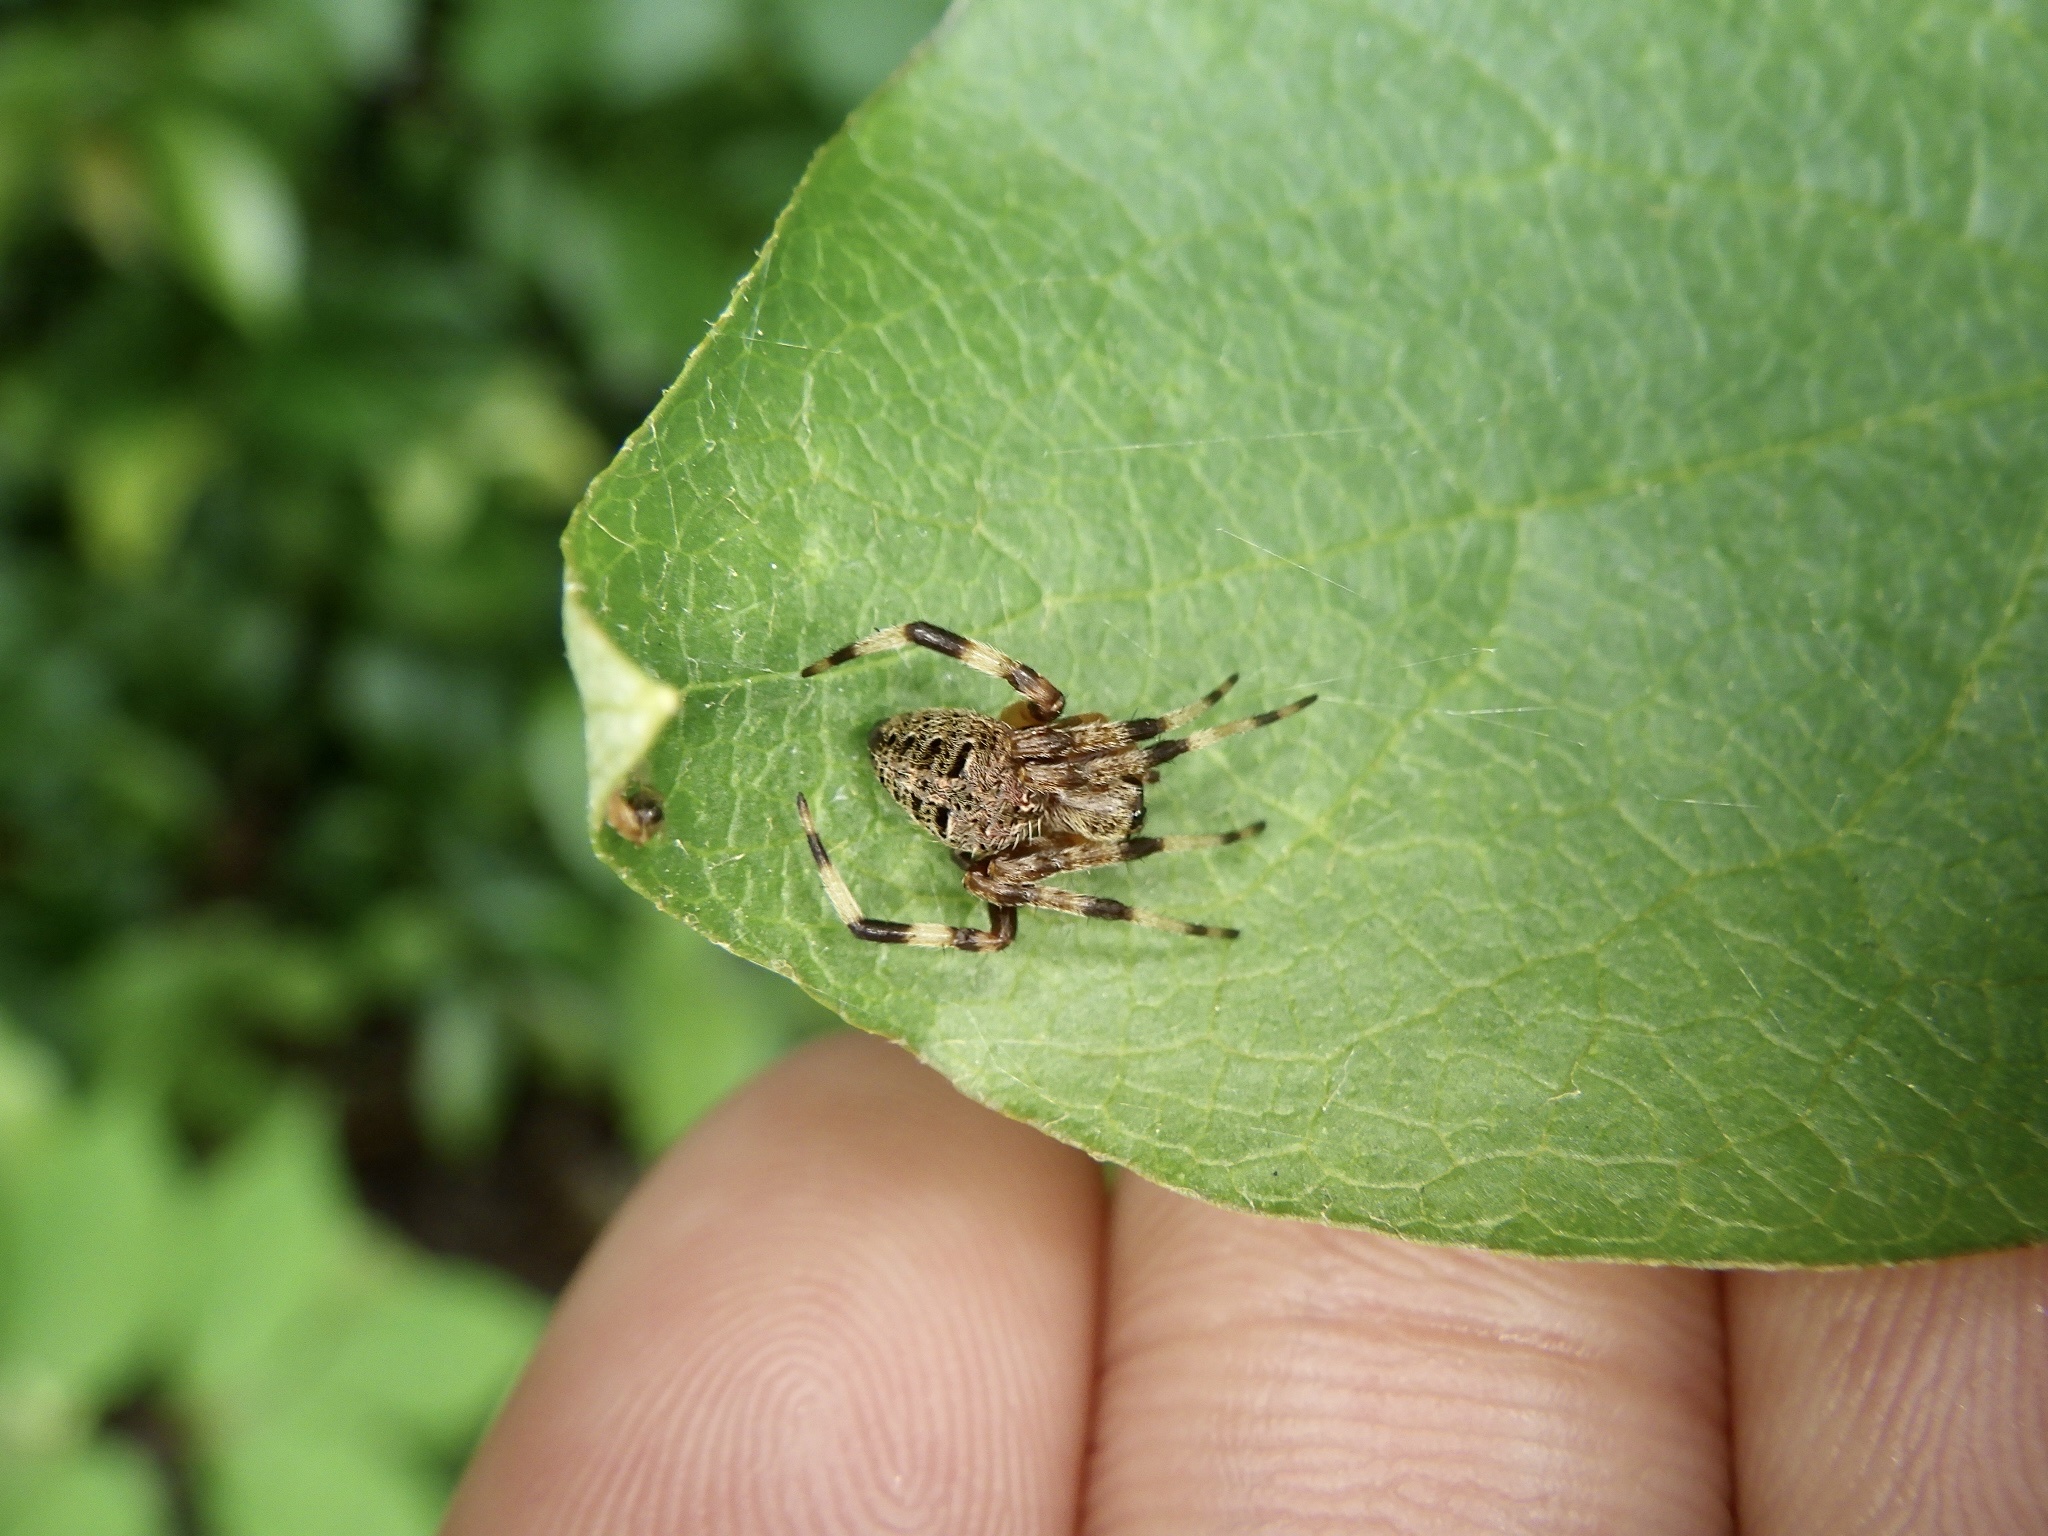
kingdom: Animalia
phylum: Arthropoda
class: Arachnida
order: Araneae
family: Araneidae
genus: Neoscona
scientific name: Neoscona scylla
